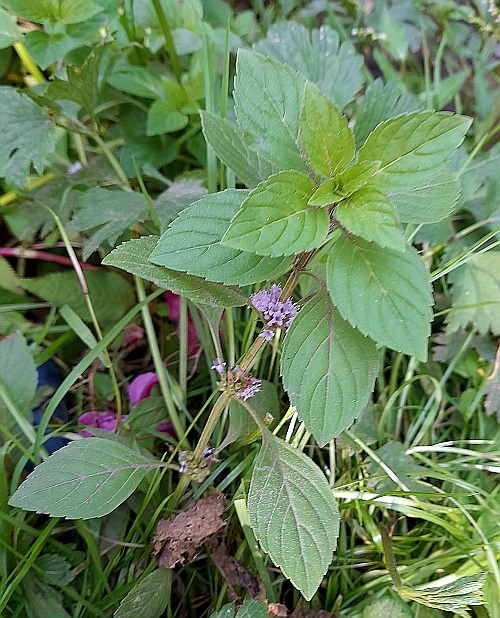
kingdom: Plantae
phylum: Tracheophyta
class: Magnoliopsida
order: Lamiales
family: Lamiaceae
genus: Mentha
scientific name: Mentha arvensis
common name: Corn mint
